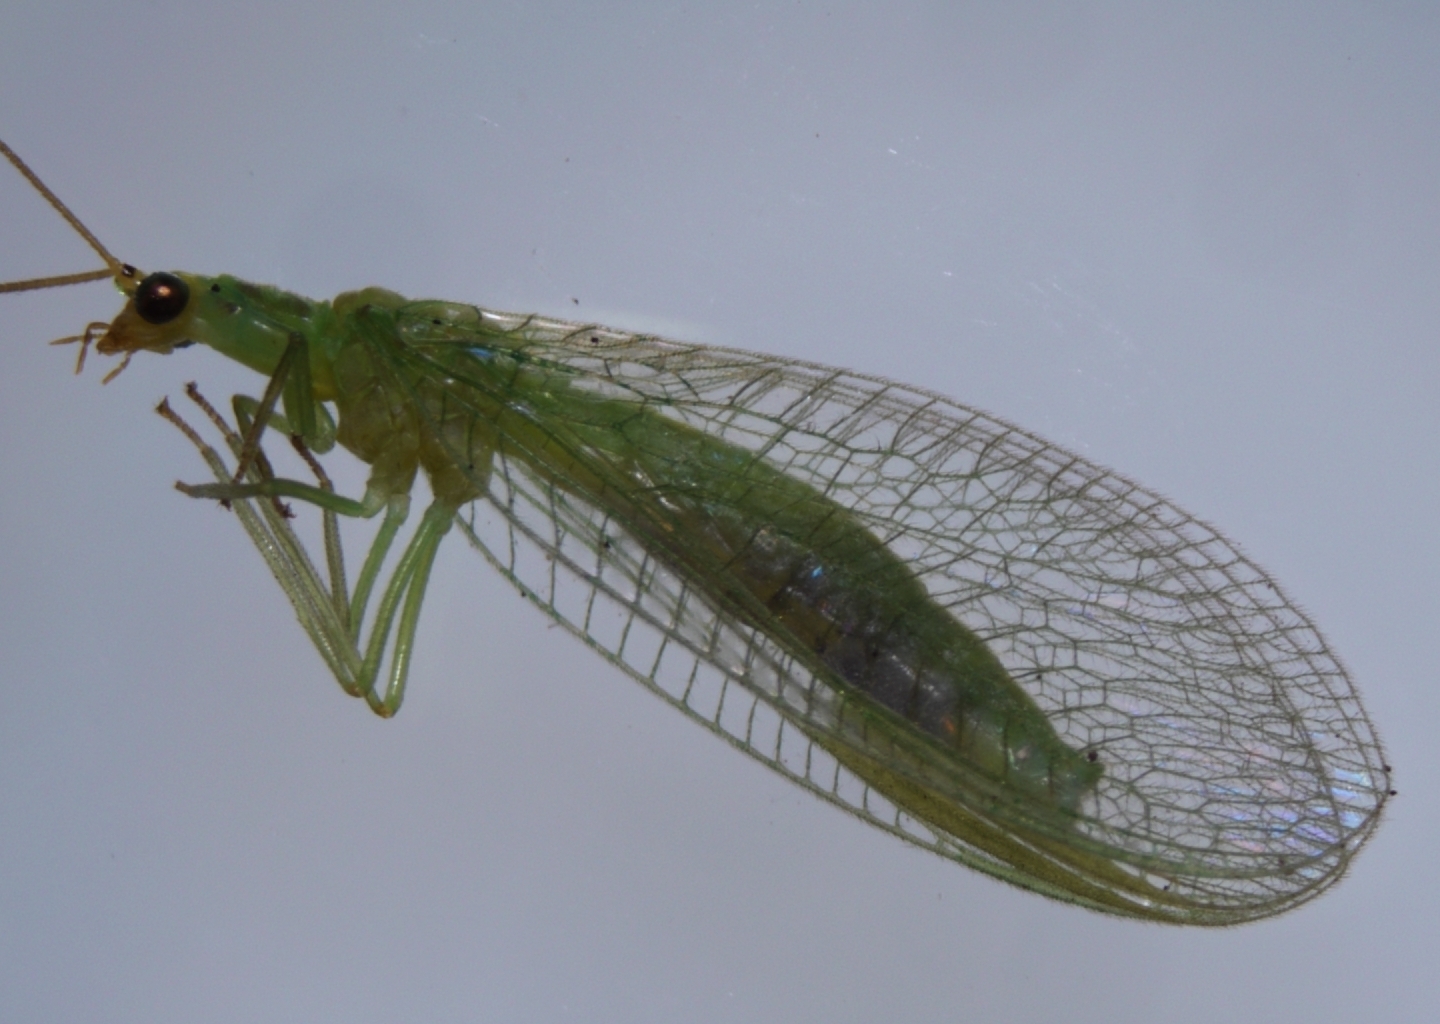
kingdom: Animalia
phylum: Arthropoda
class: Insecta
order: Neuroptera
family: Chrysopidae
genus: Mallada
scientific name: Mallada basalis
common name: Green lacewing
